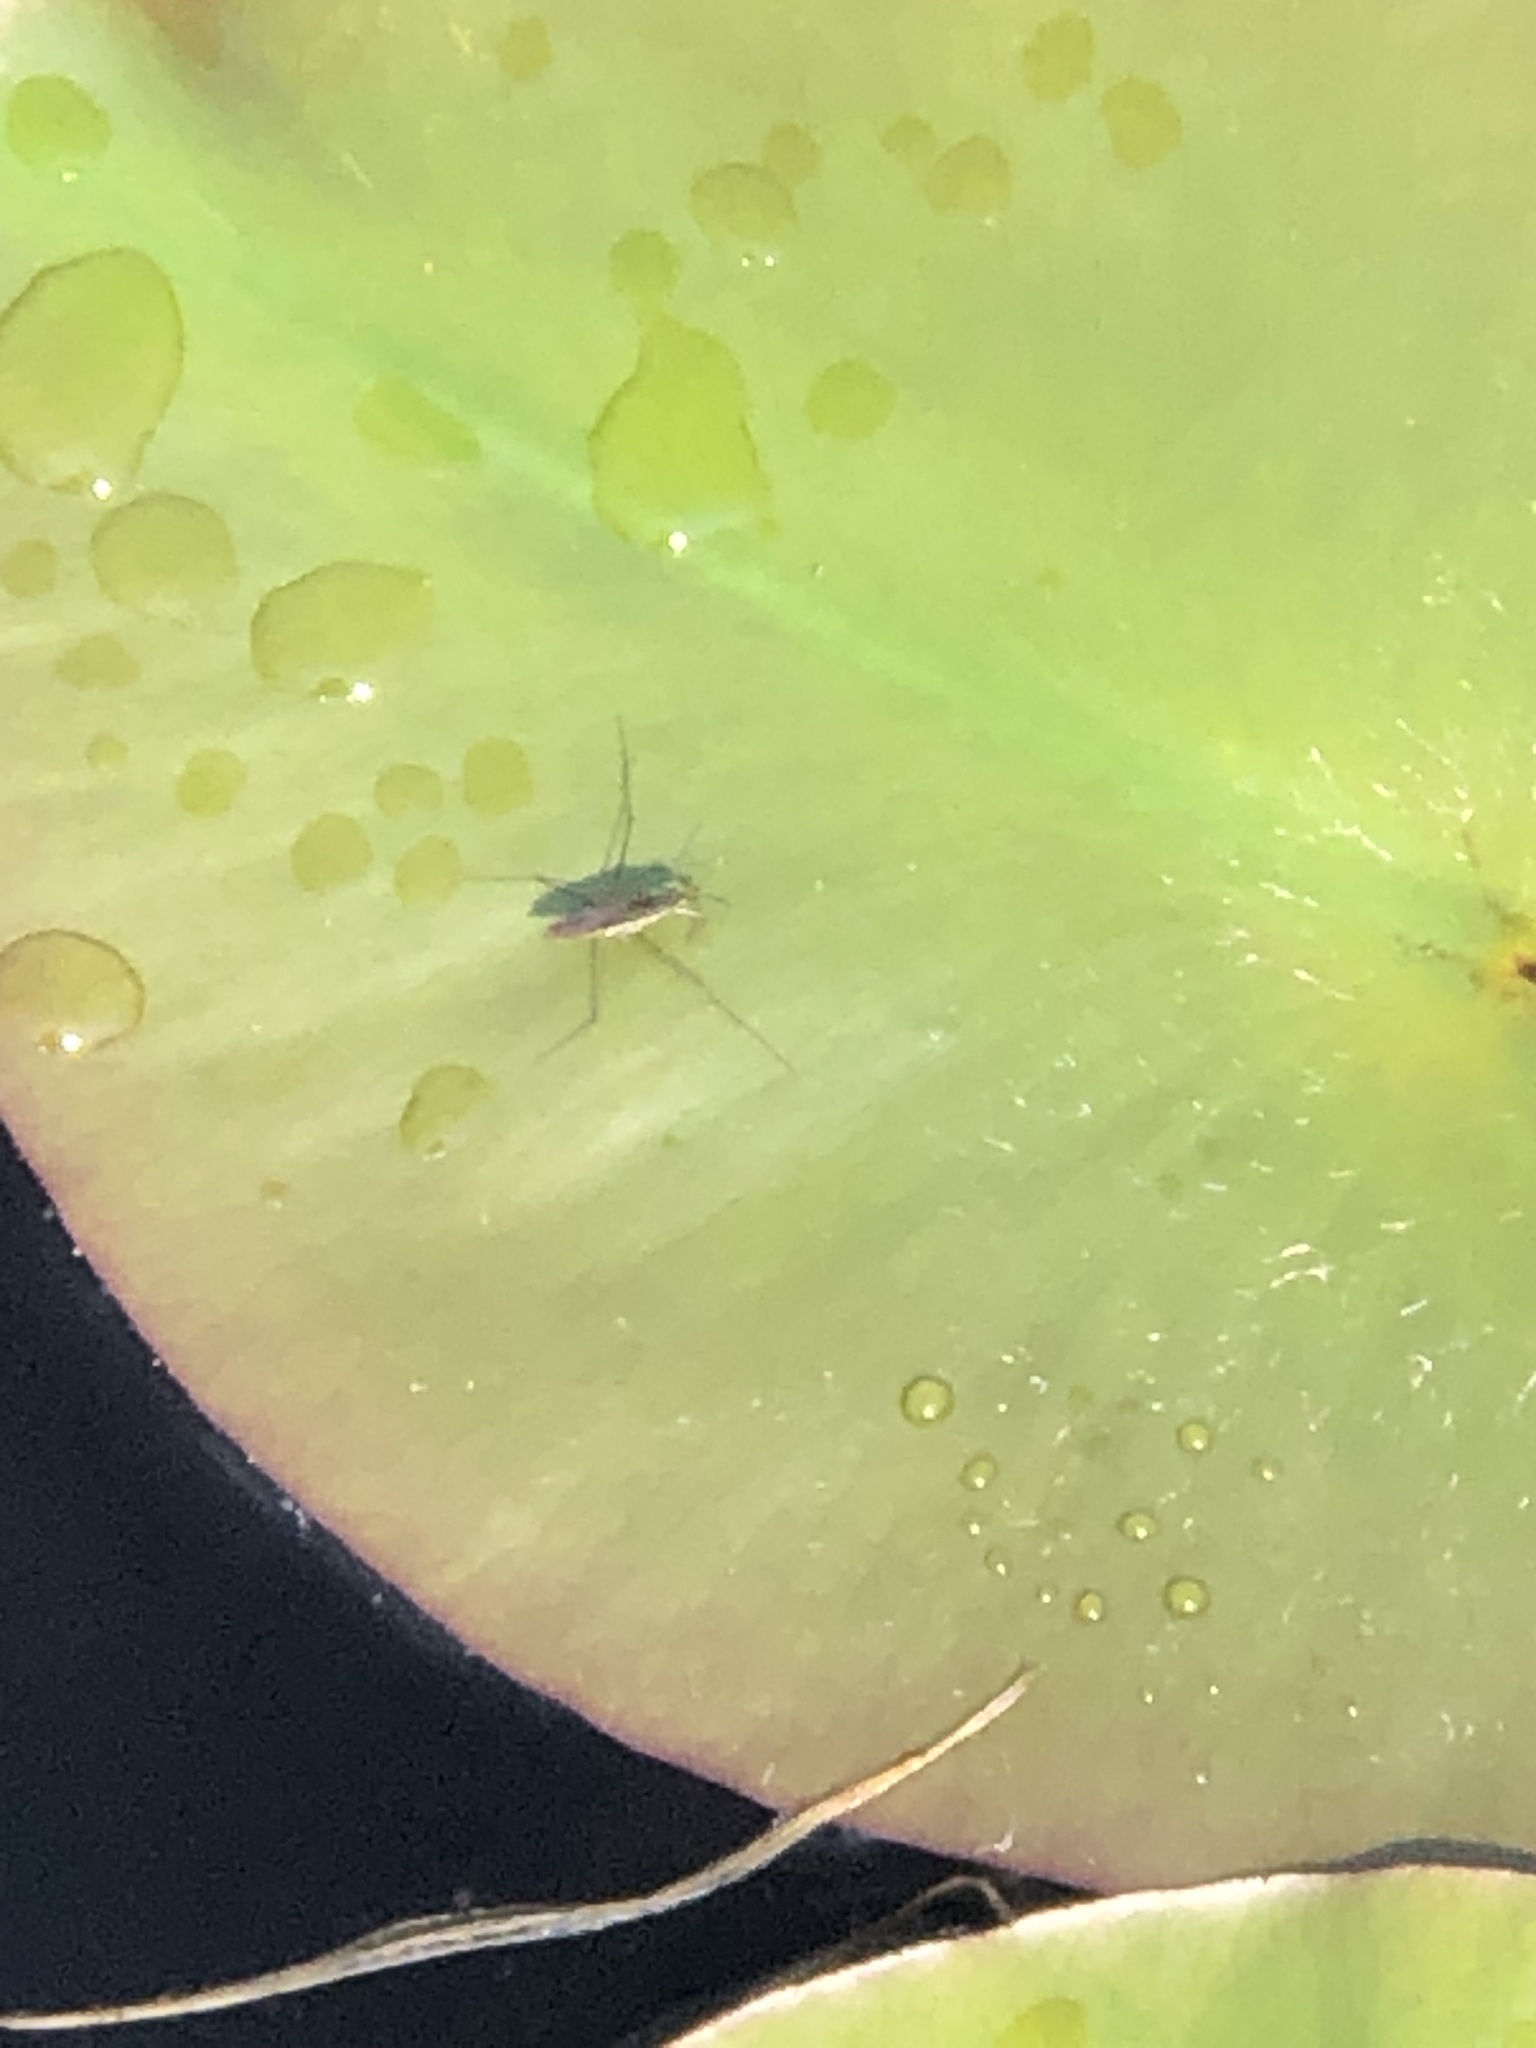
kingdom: Animalia
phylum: Arthropoda
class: Insecta
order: Hemiptera
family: Gerridae
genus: Gerris
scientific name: Gerris
